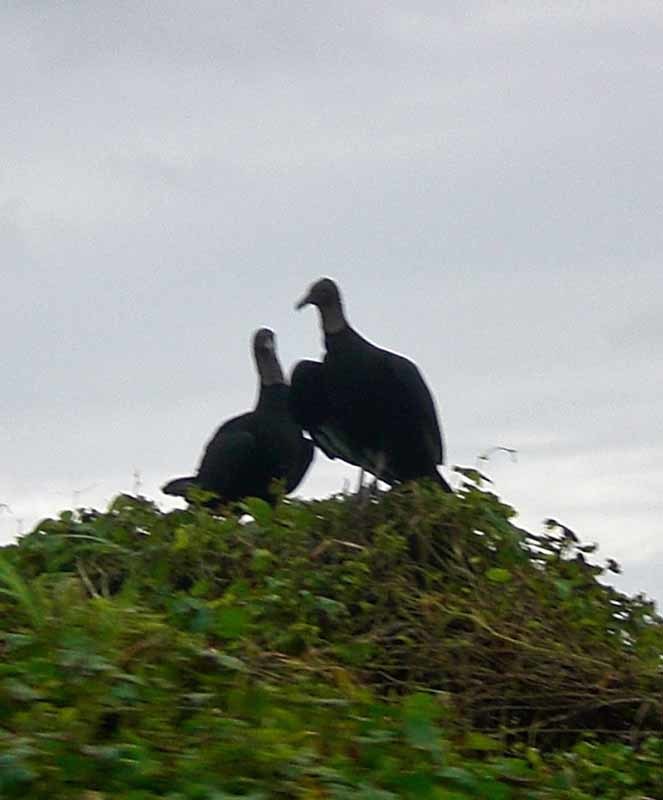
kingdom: Animalia
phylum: Chordata
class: Aves
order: Accipitriformes
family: Cathartidae
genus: Coragyps
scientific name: Coragyps atratus
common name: Black vulture
